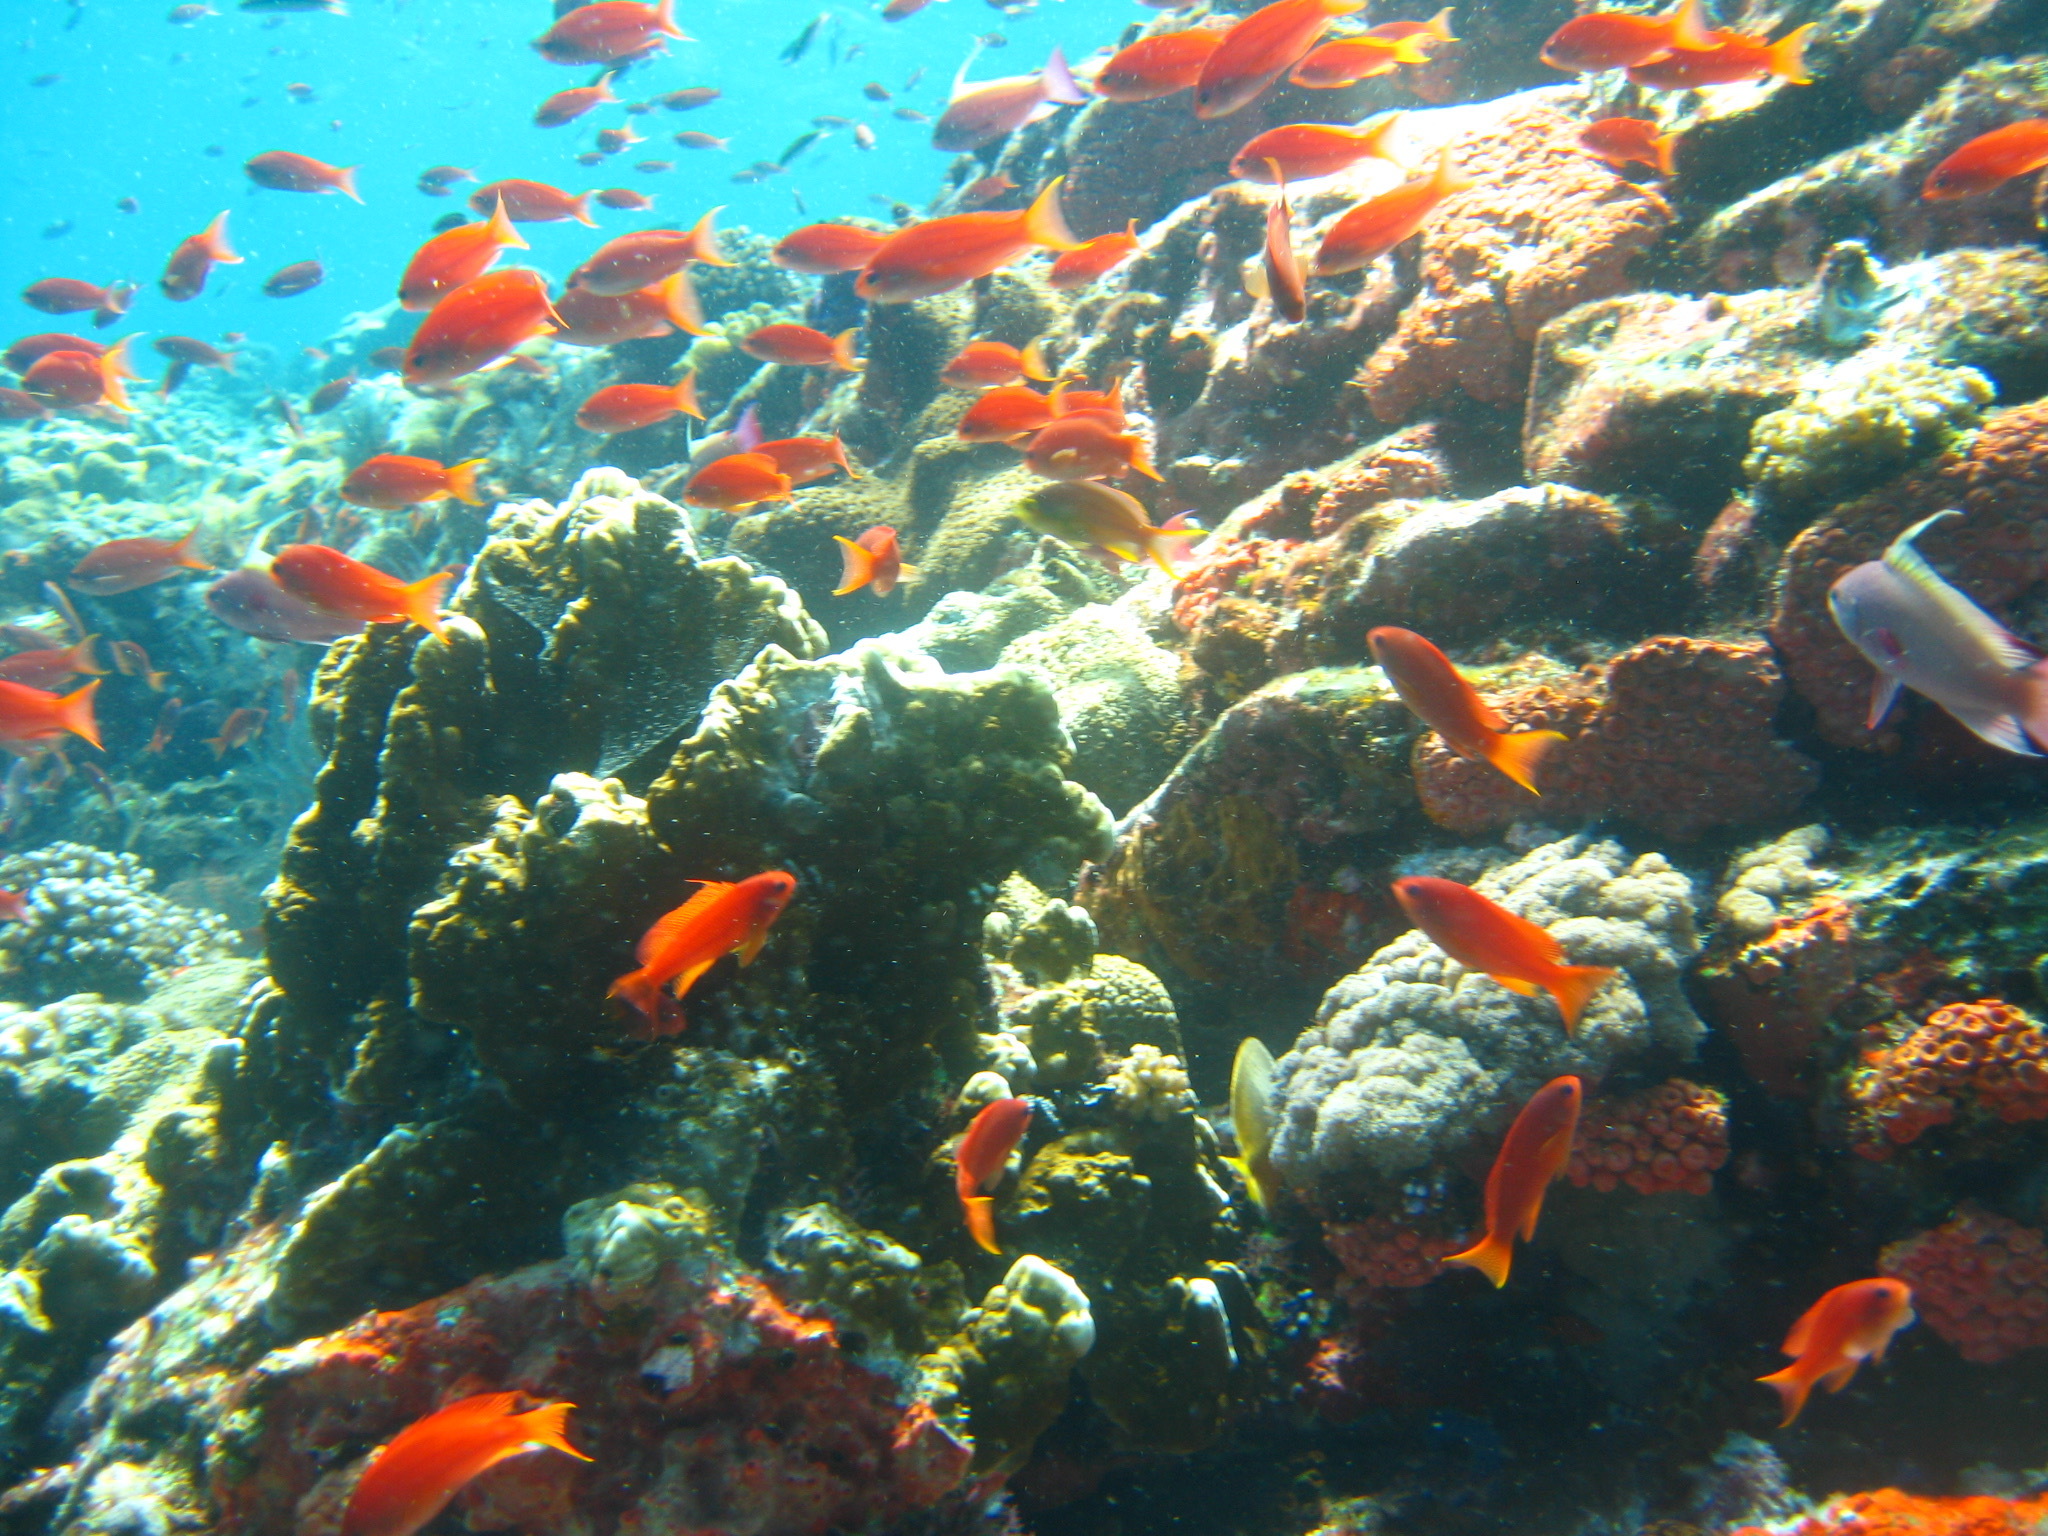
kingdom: Animalia
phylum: Chordata
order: Perciformes
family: Serranidae
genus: Pseudanthias
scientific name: Pseudanthias squamipinnis
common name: Scalefin anthias
